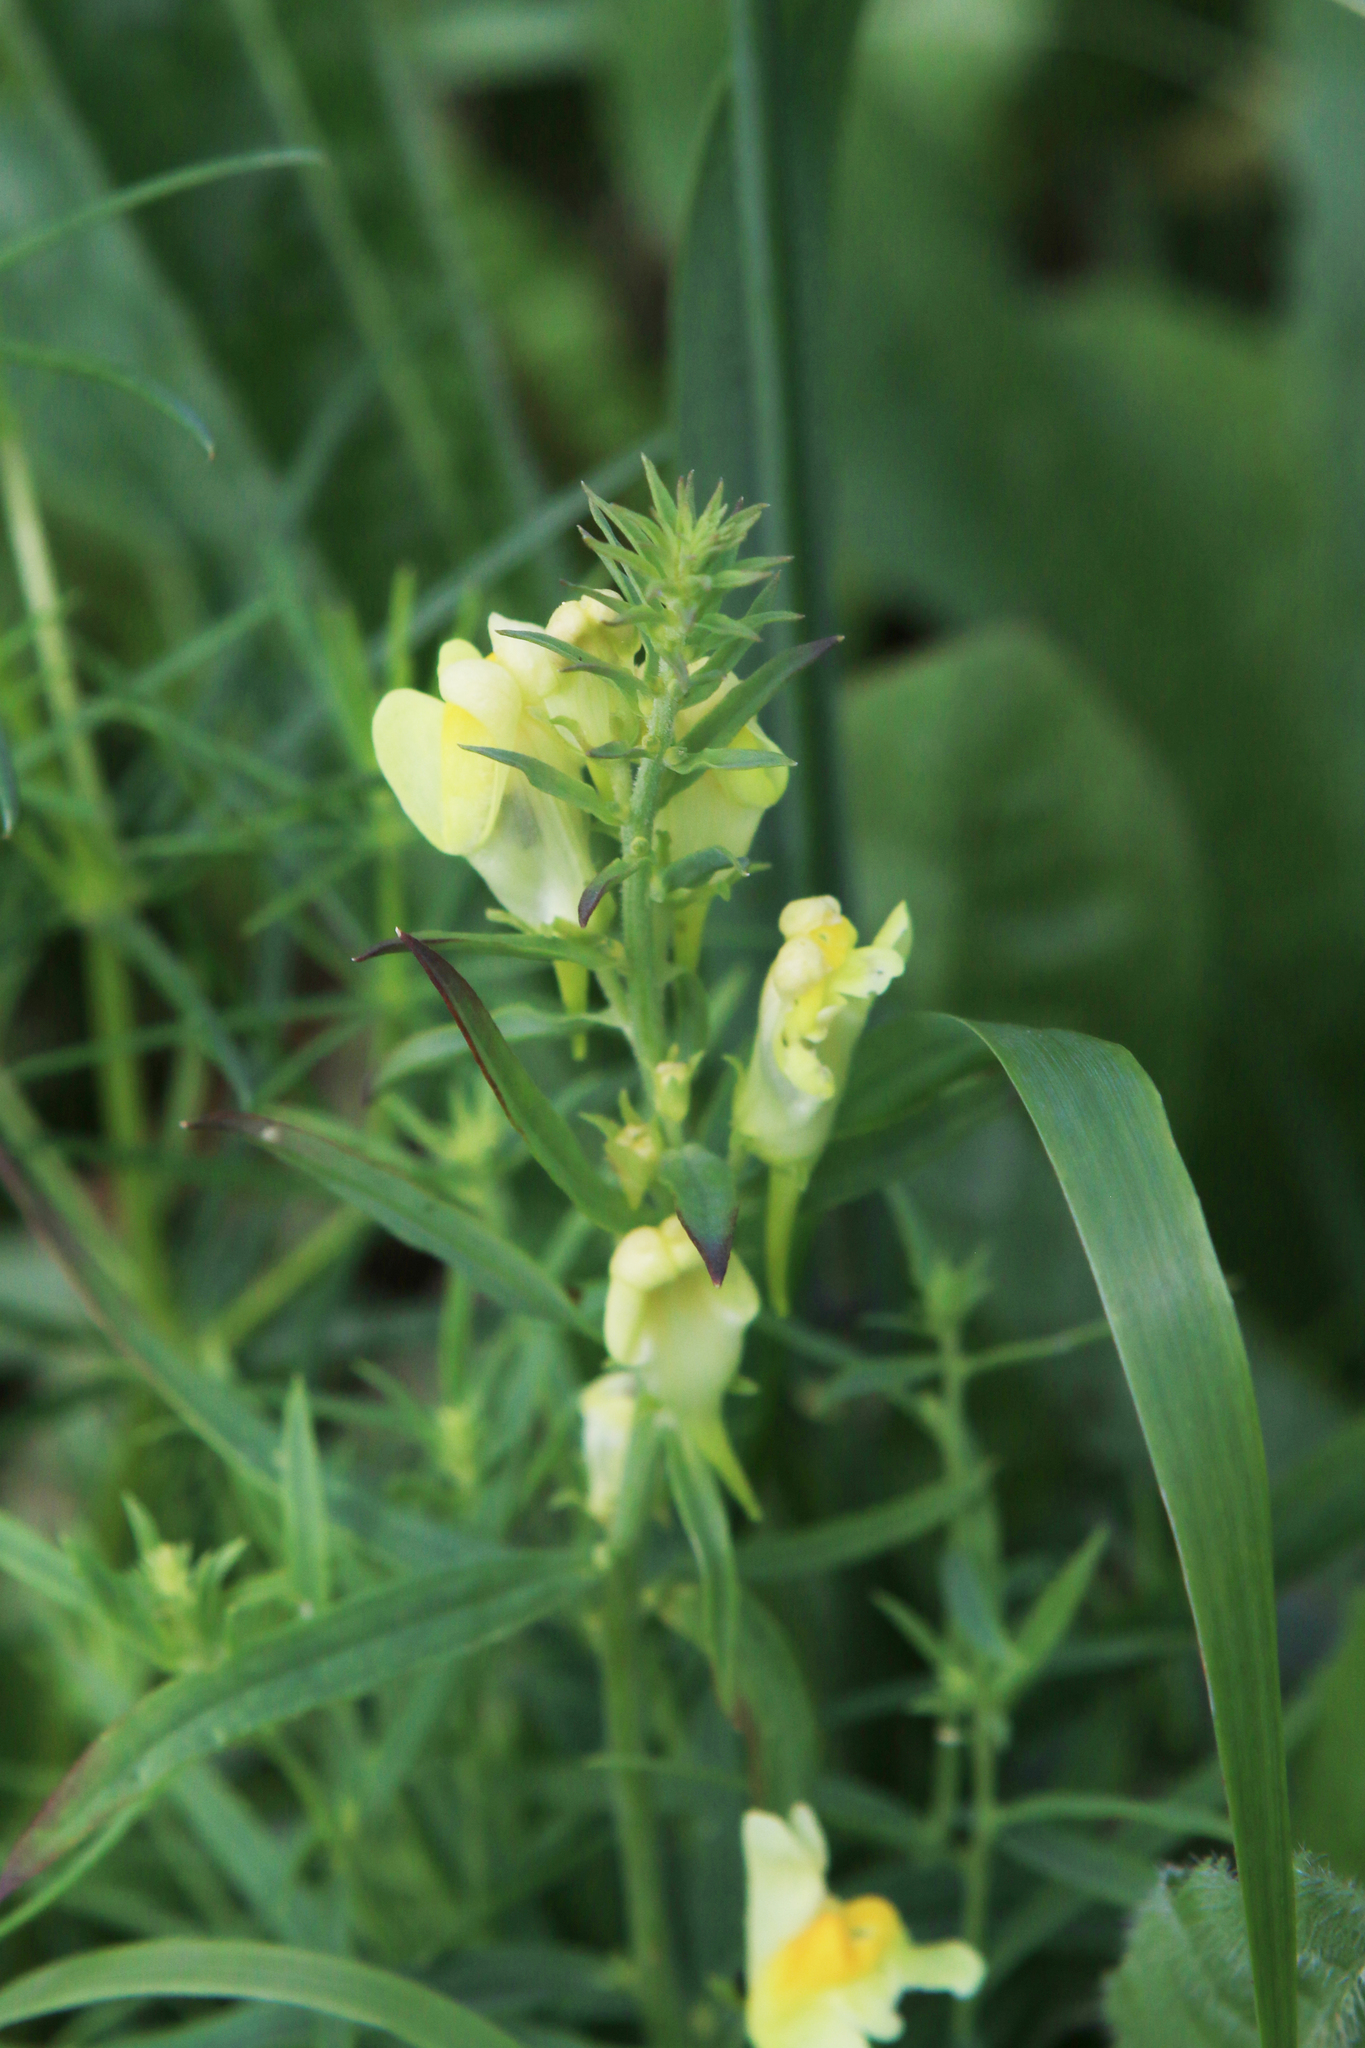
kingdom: Plantae
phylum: Tracheophyta
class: Magnoliopsida
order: Lamiales
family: Plantaginaceae
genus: Linaria
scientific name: Linaria vulgaris
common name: Butter and eggs
